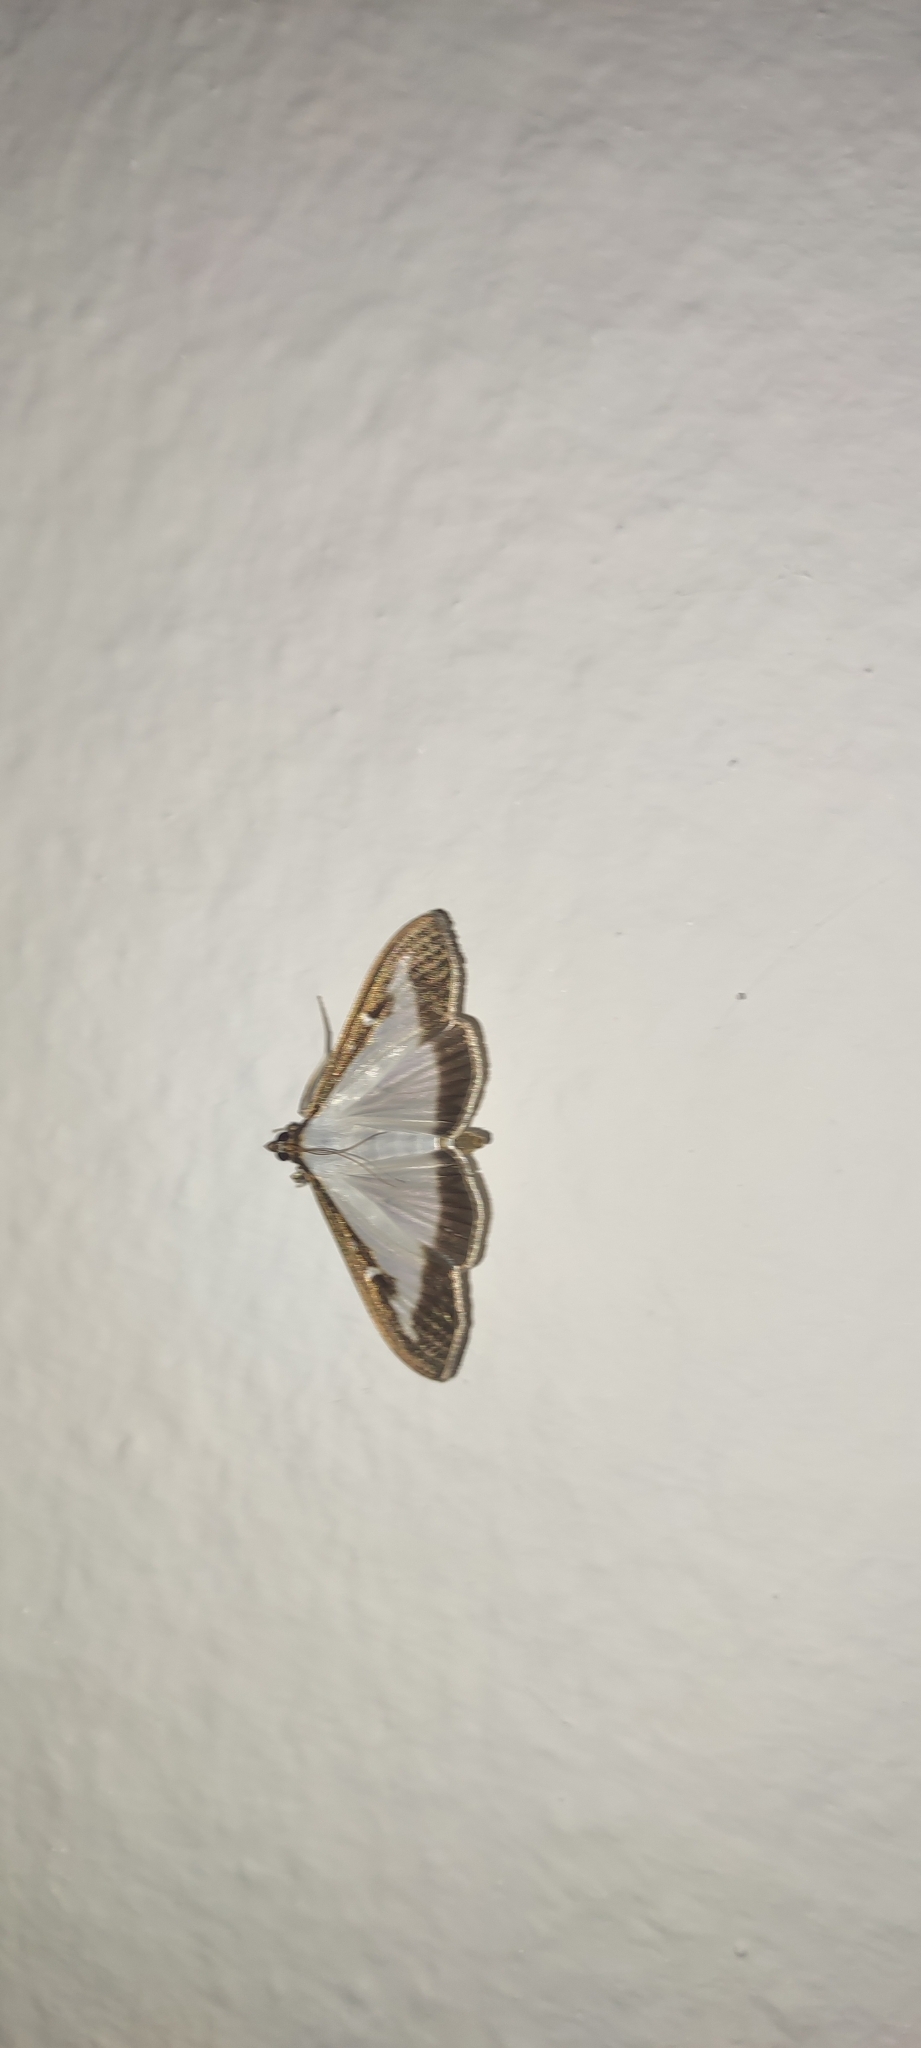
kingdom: Animalia
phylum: Arthropoda
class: Insecta
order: Lepidoptera
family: Crambidae
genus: Cydalima
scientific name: Cydalima perspectalis
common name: Box tree moth
